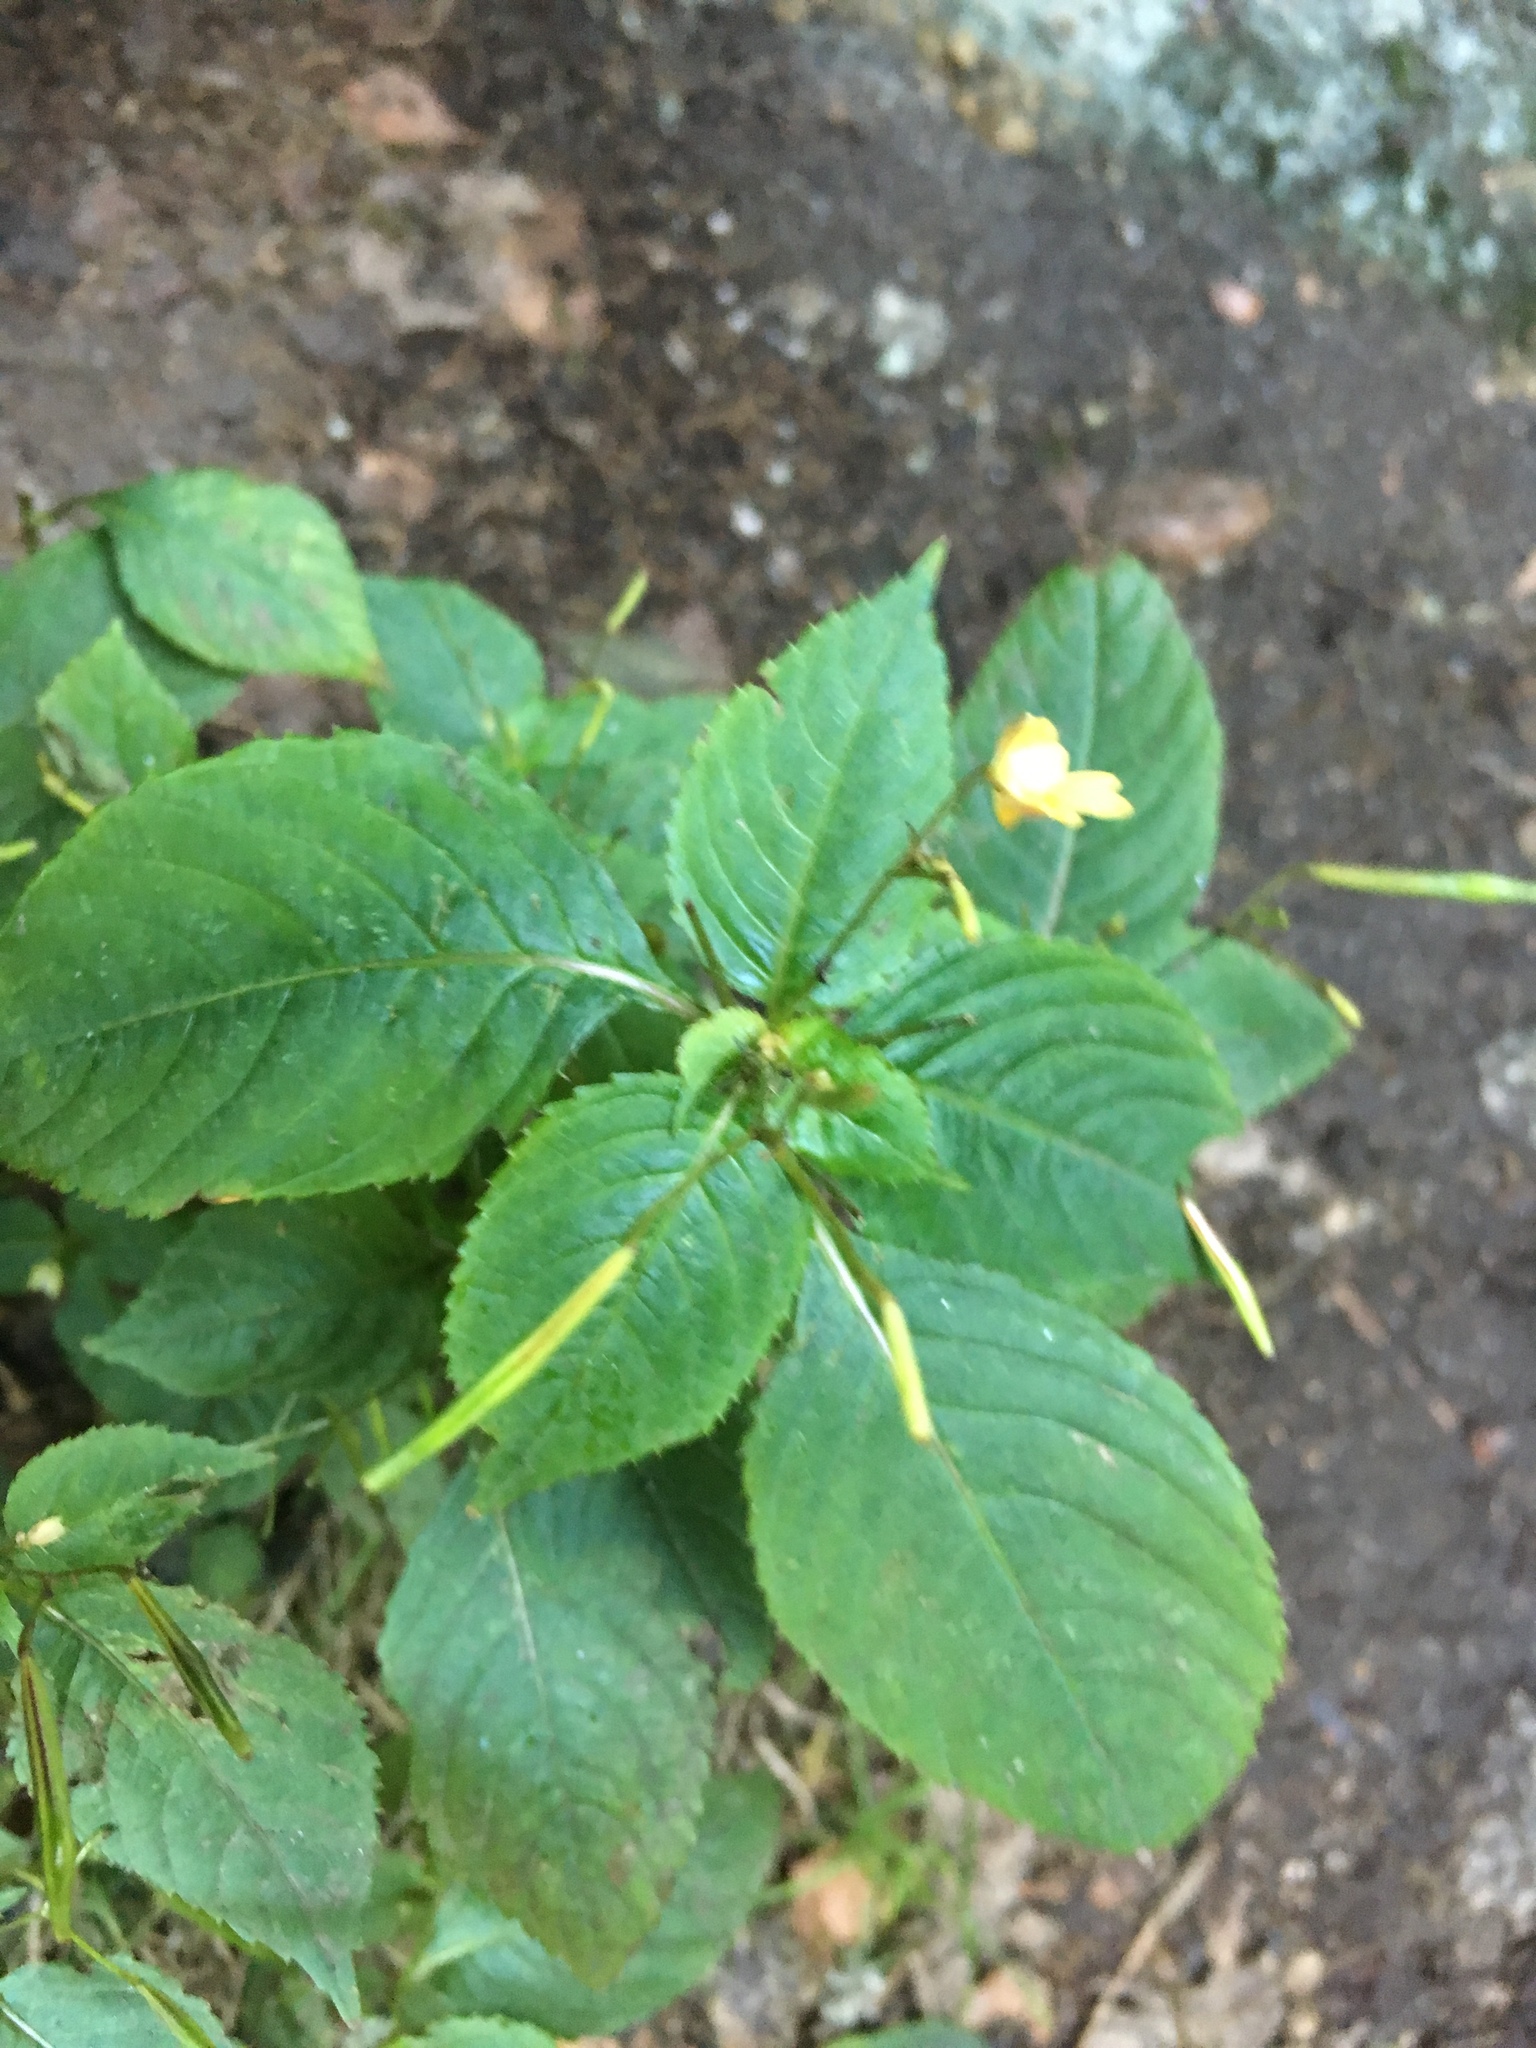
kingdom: Plantae
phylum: Tracheophyta
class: Magnoliopsida
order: Ericales
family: Balsaminaceae
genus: Impatiens
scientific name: Impatiens parviflora
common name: Small balsam
